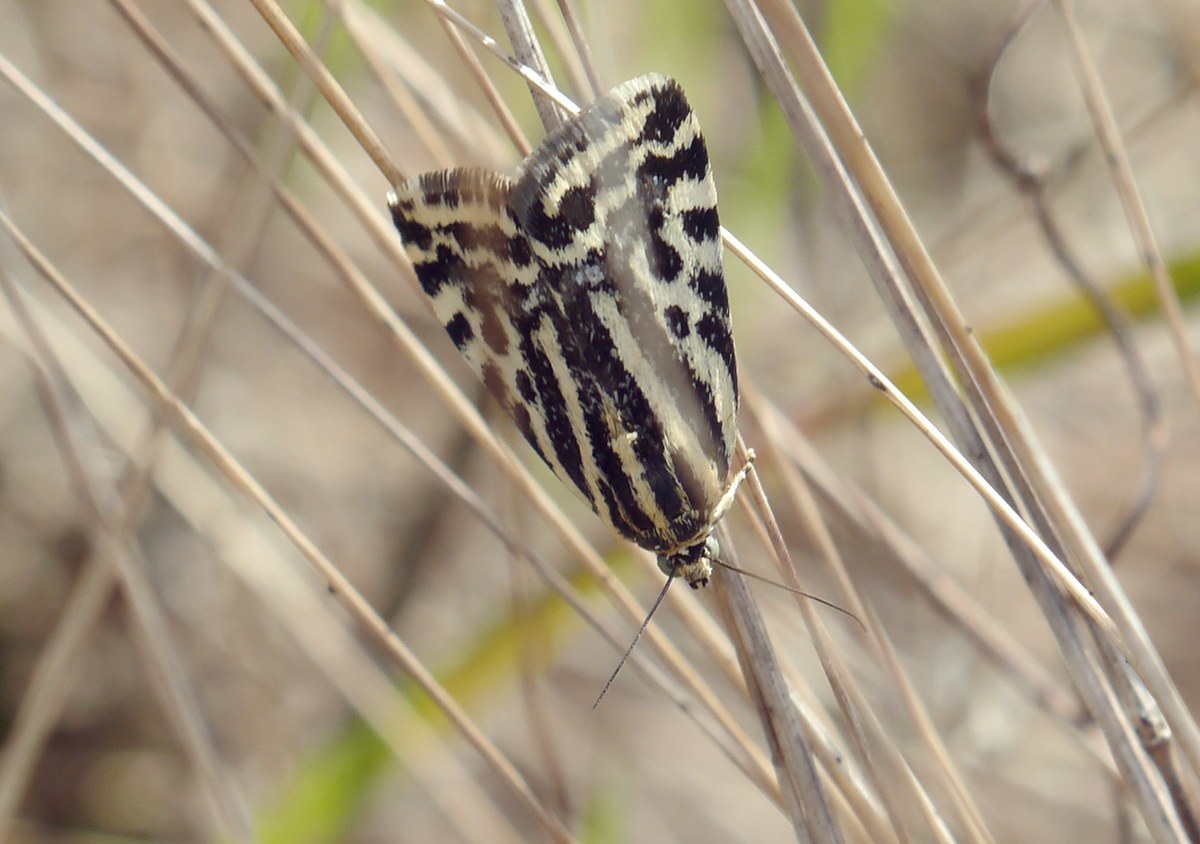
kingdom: Animalia
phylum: Arthropoda
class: Insecta
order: Lepidoptera
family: Noctuidae
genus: Acontia
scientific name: Acontia trabealis
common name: Spotted sulphur
